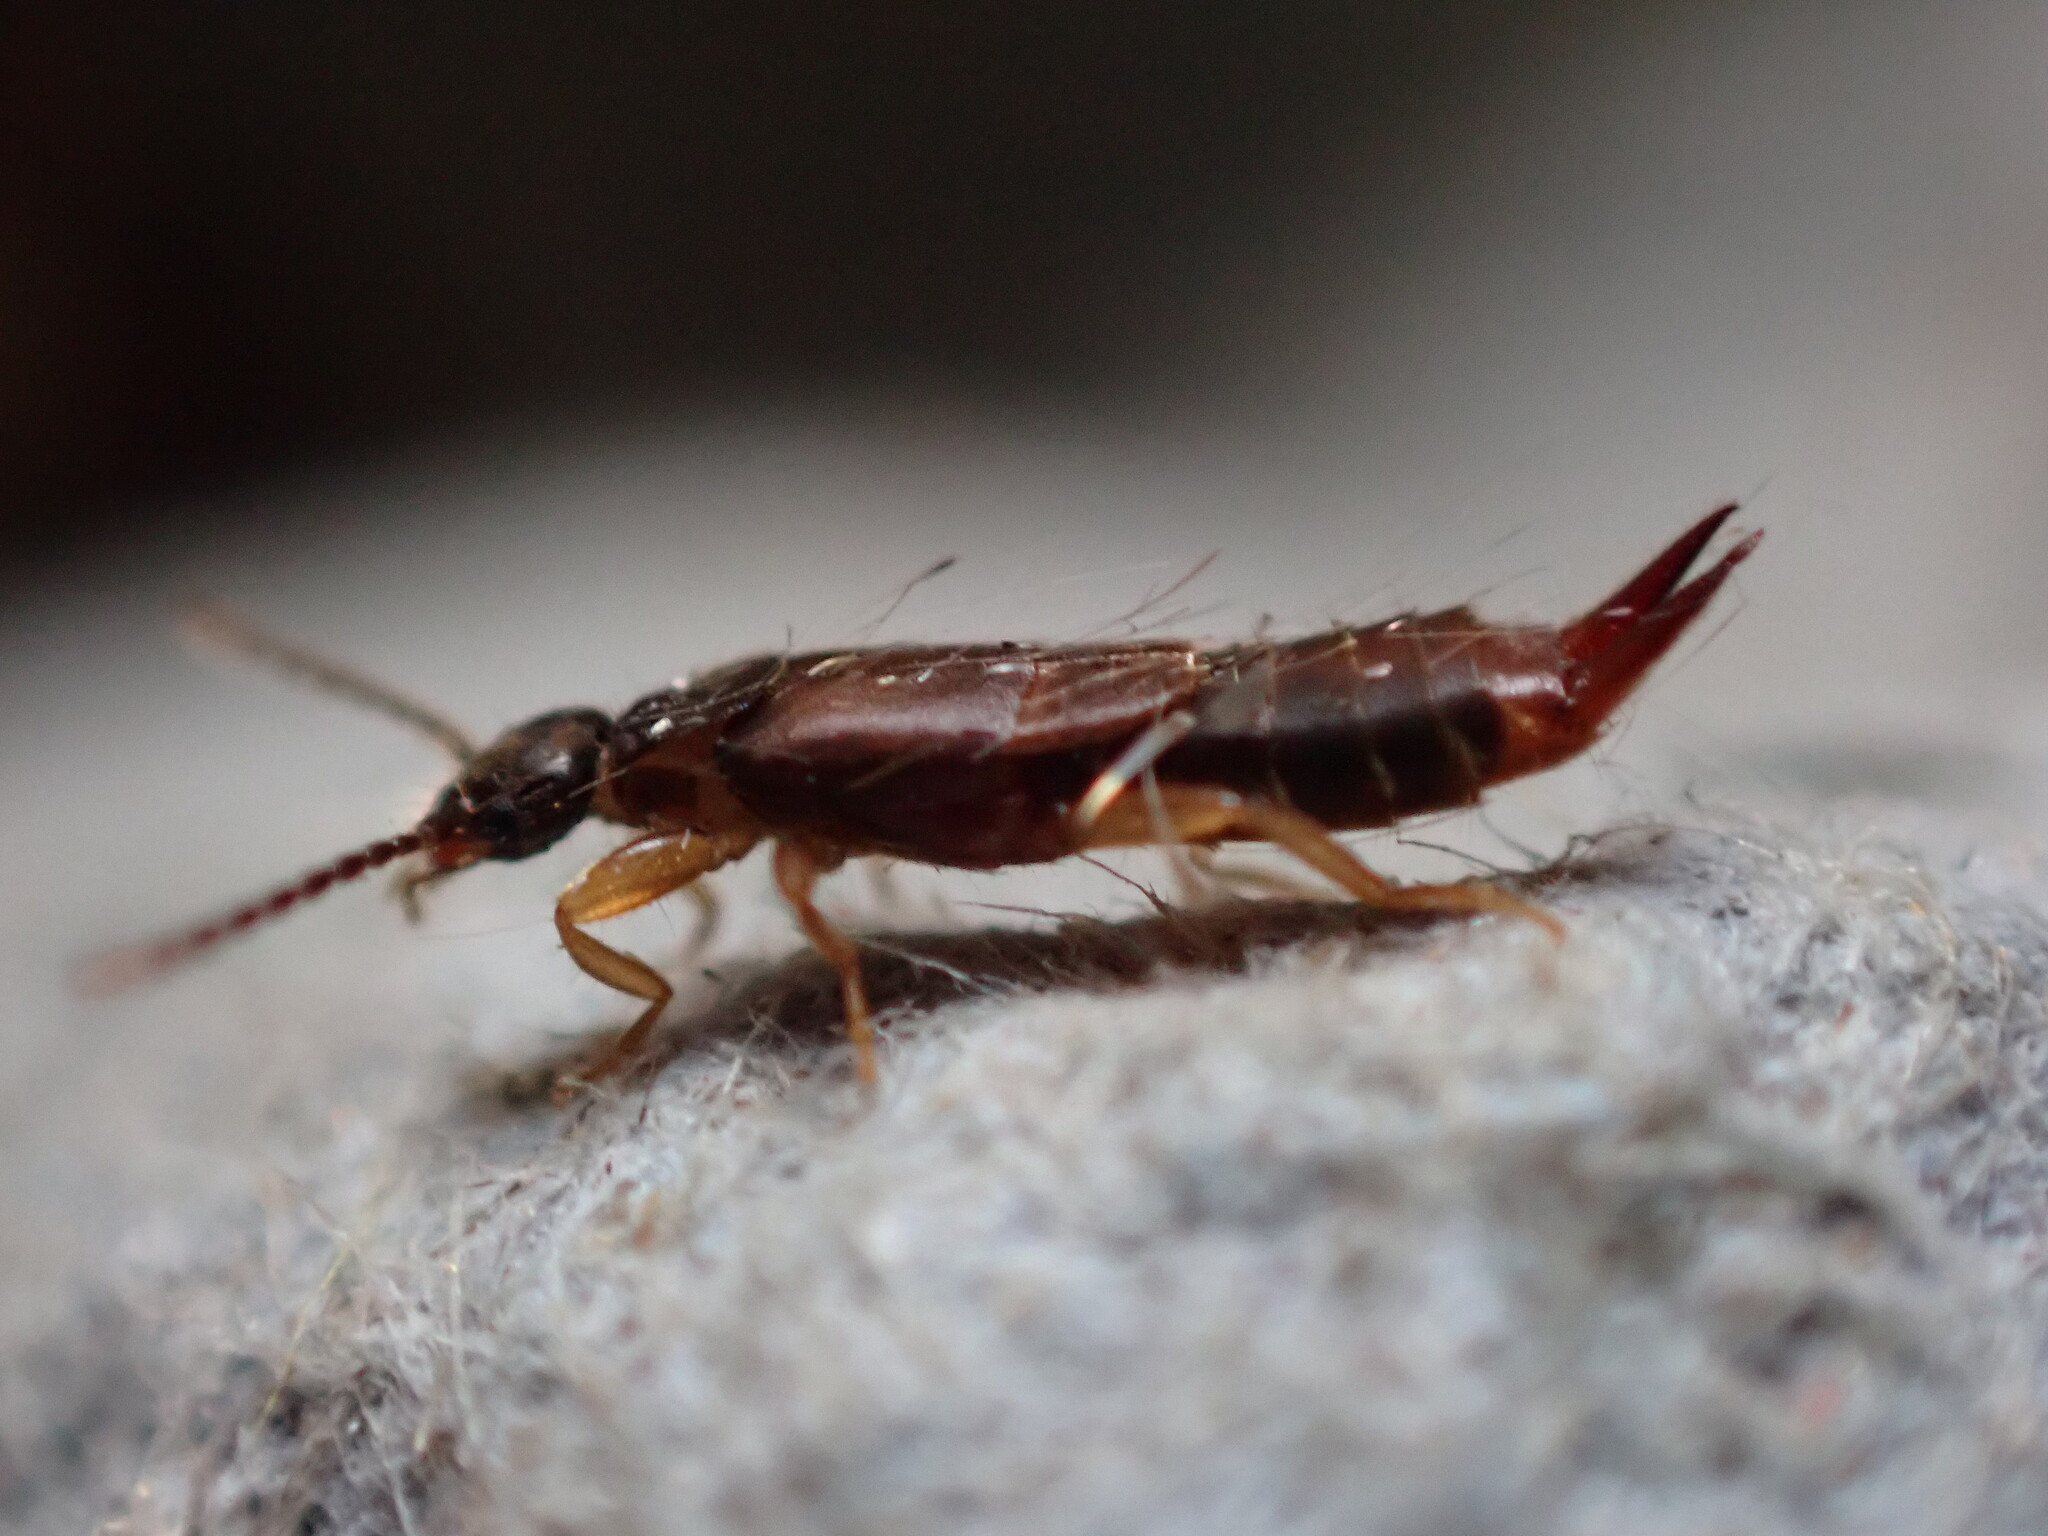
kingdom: Animalia
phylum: Arthropoda
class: Insecta
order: Dermaptera
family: Spongiphoridae
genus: Labia
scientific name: Labia minor
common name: Lesser earwig
